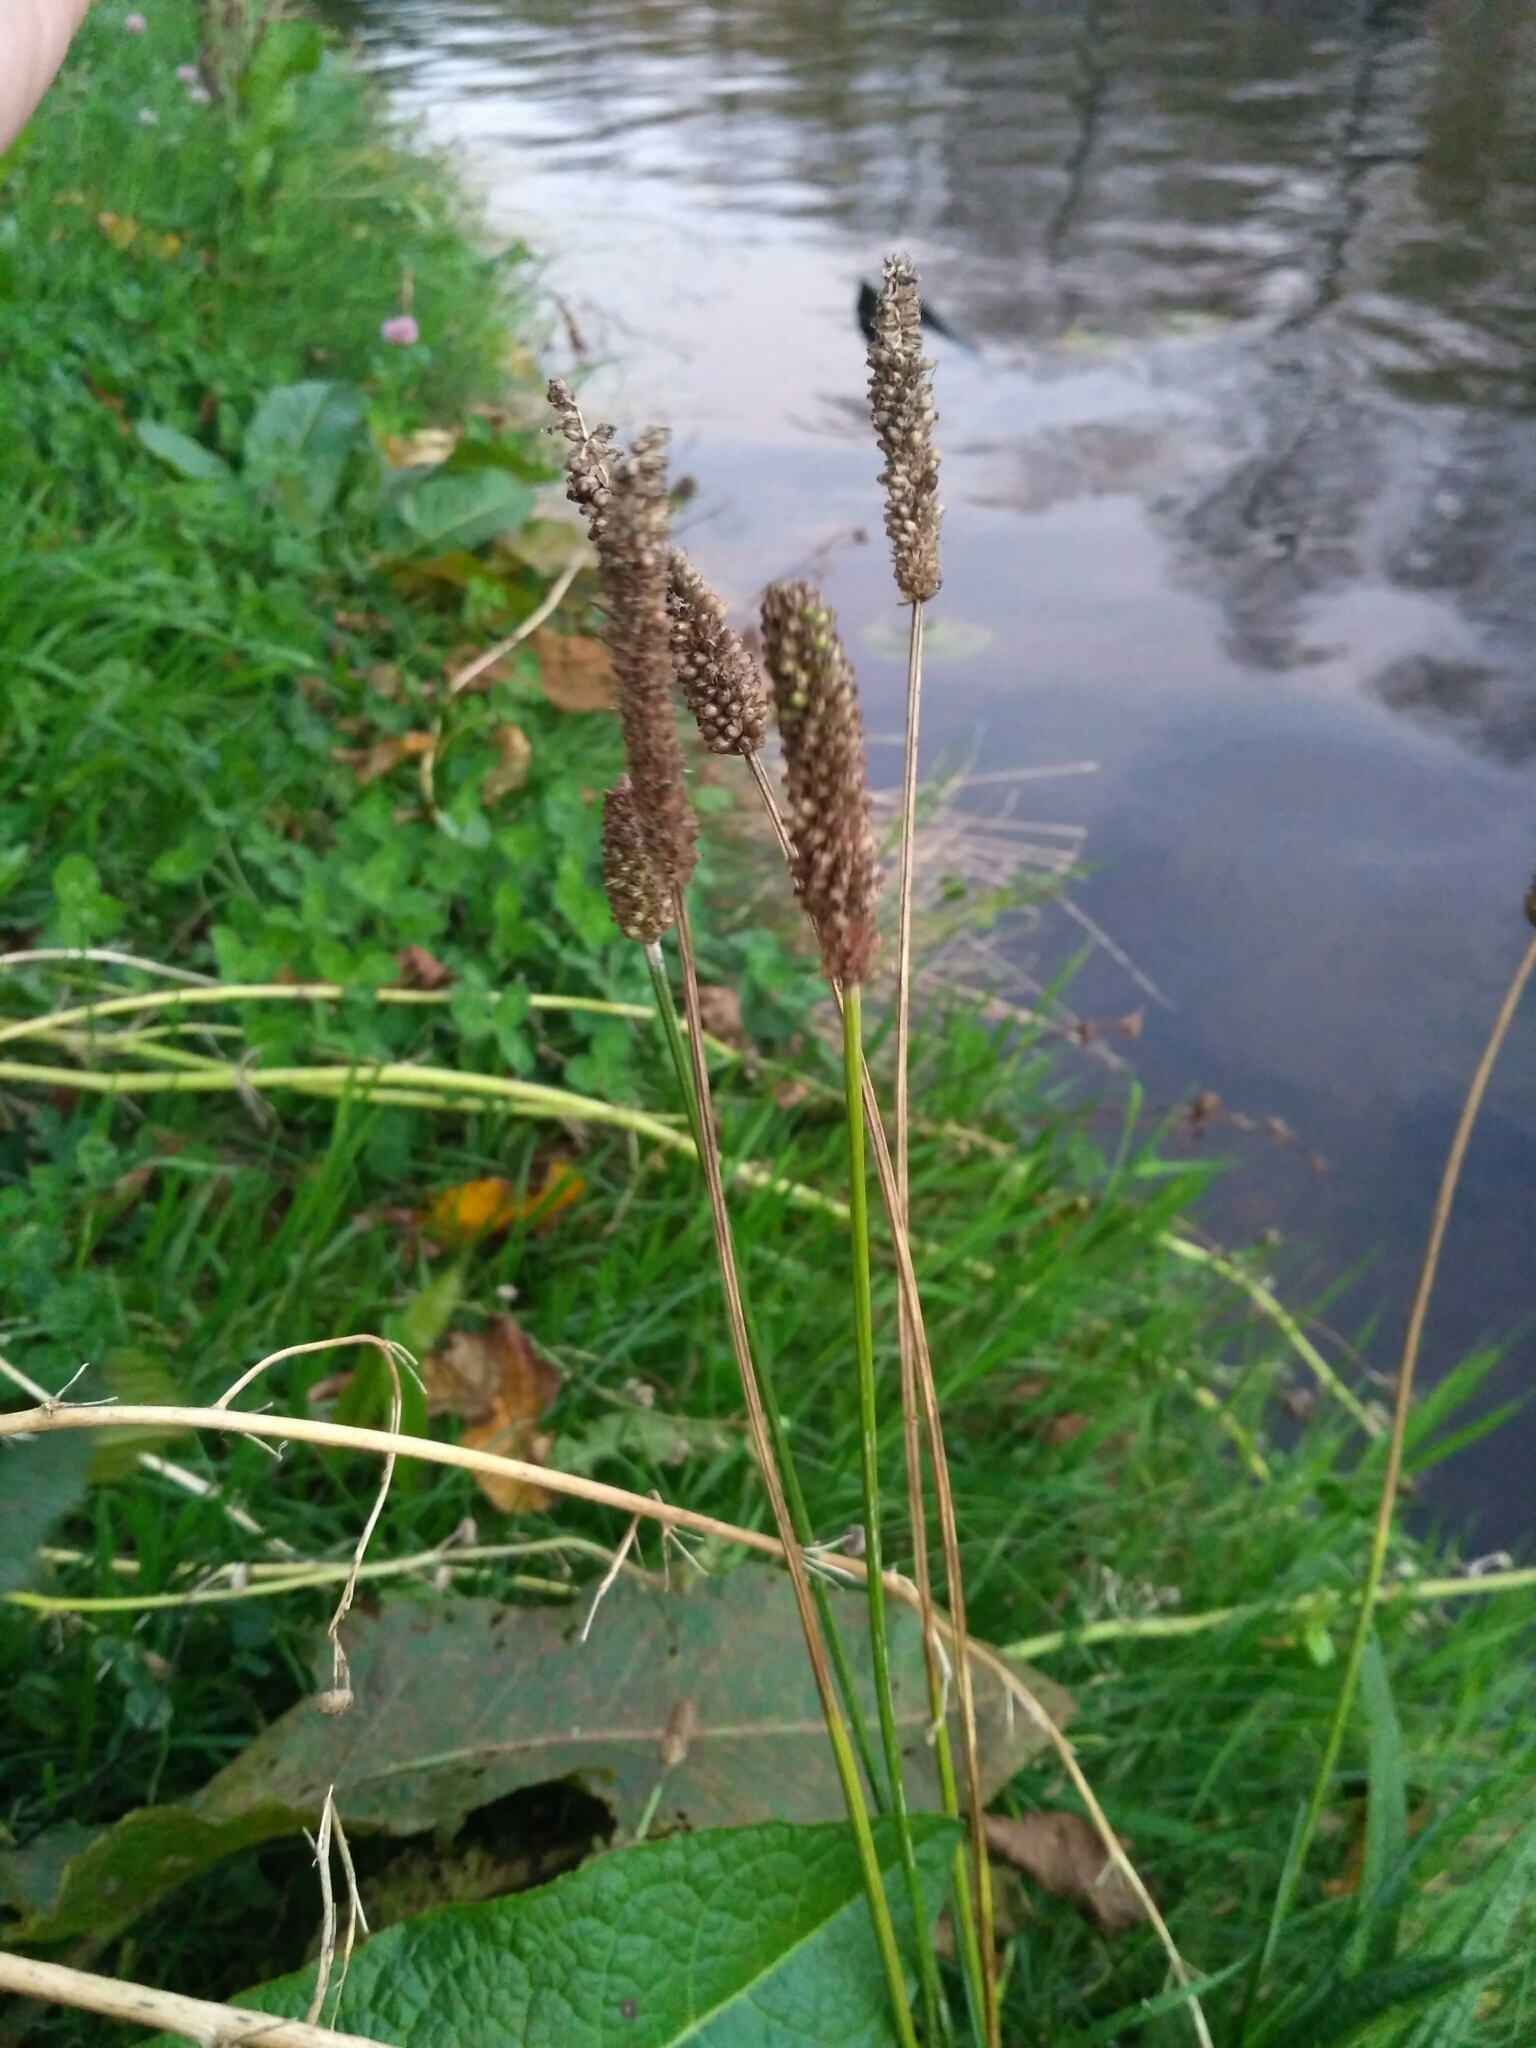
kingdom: Plantae
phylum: Tracheophyta
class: Magnoliopsida
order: Lamiales
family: Plantaginaceae
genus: Plantago
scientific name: Plantago lanceolata
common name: Ribwort plantain
